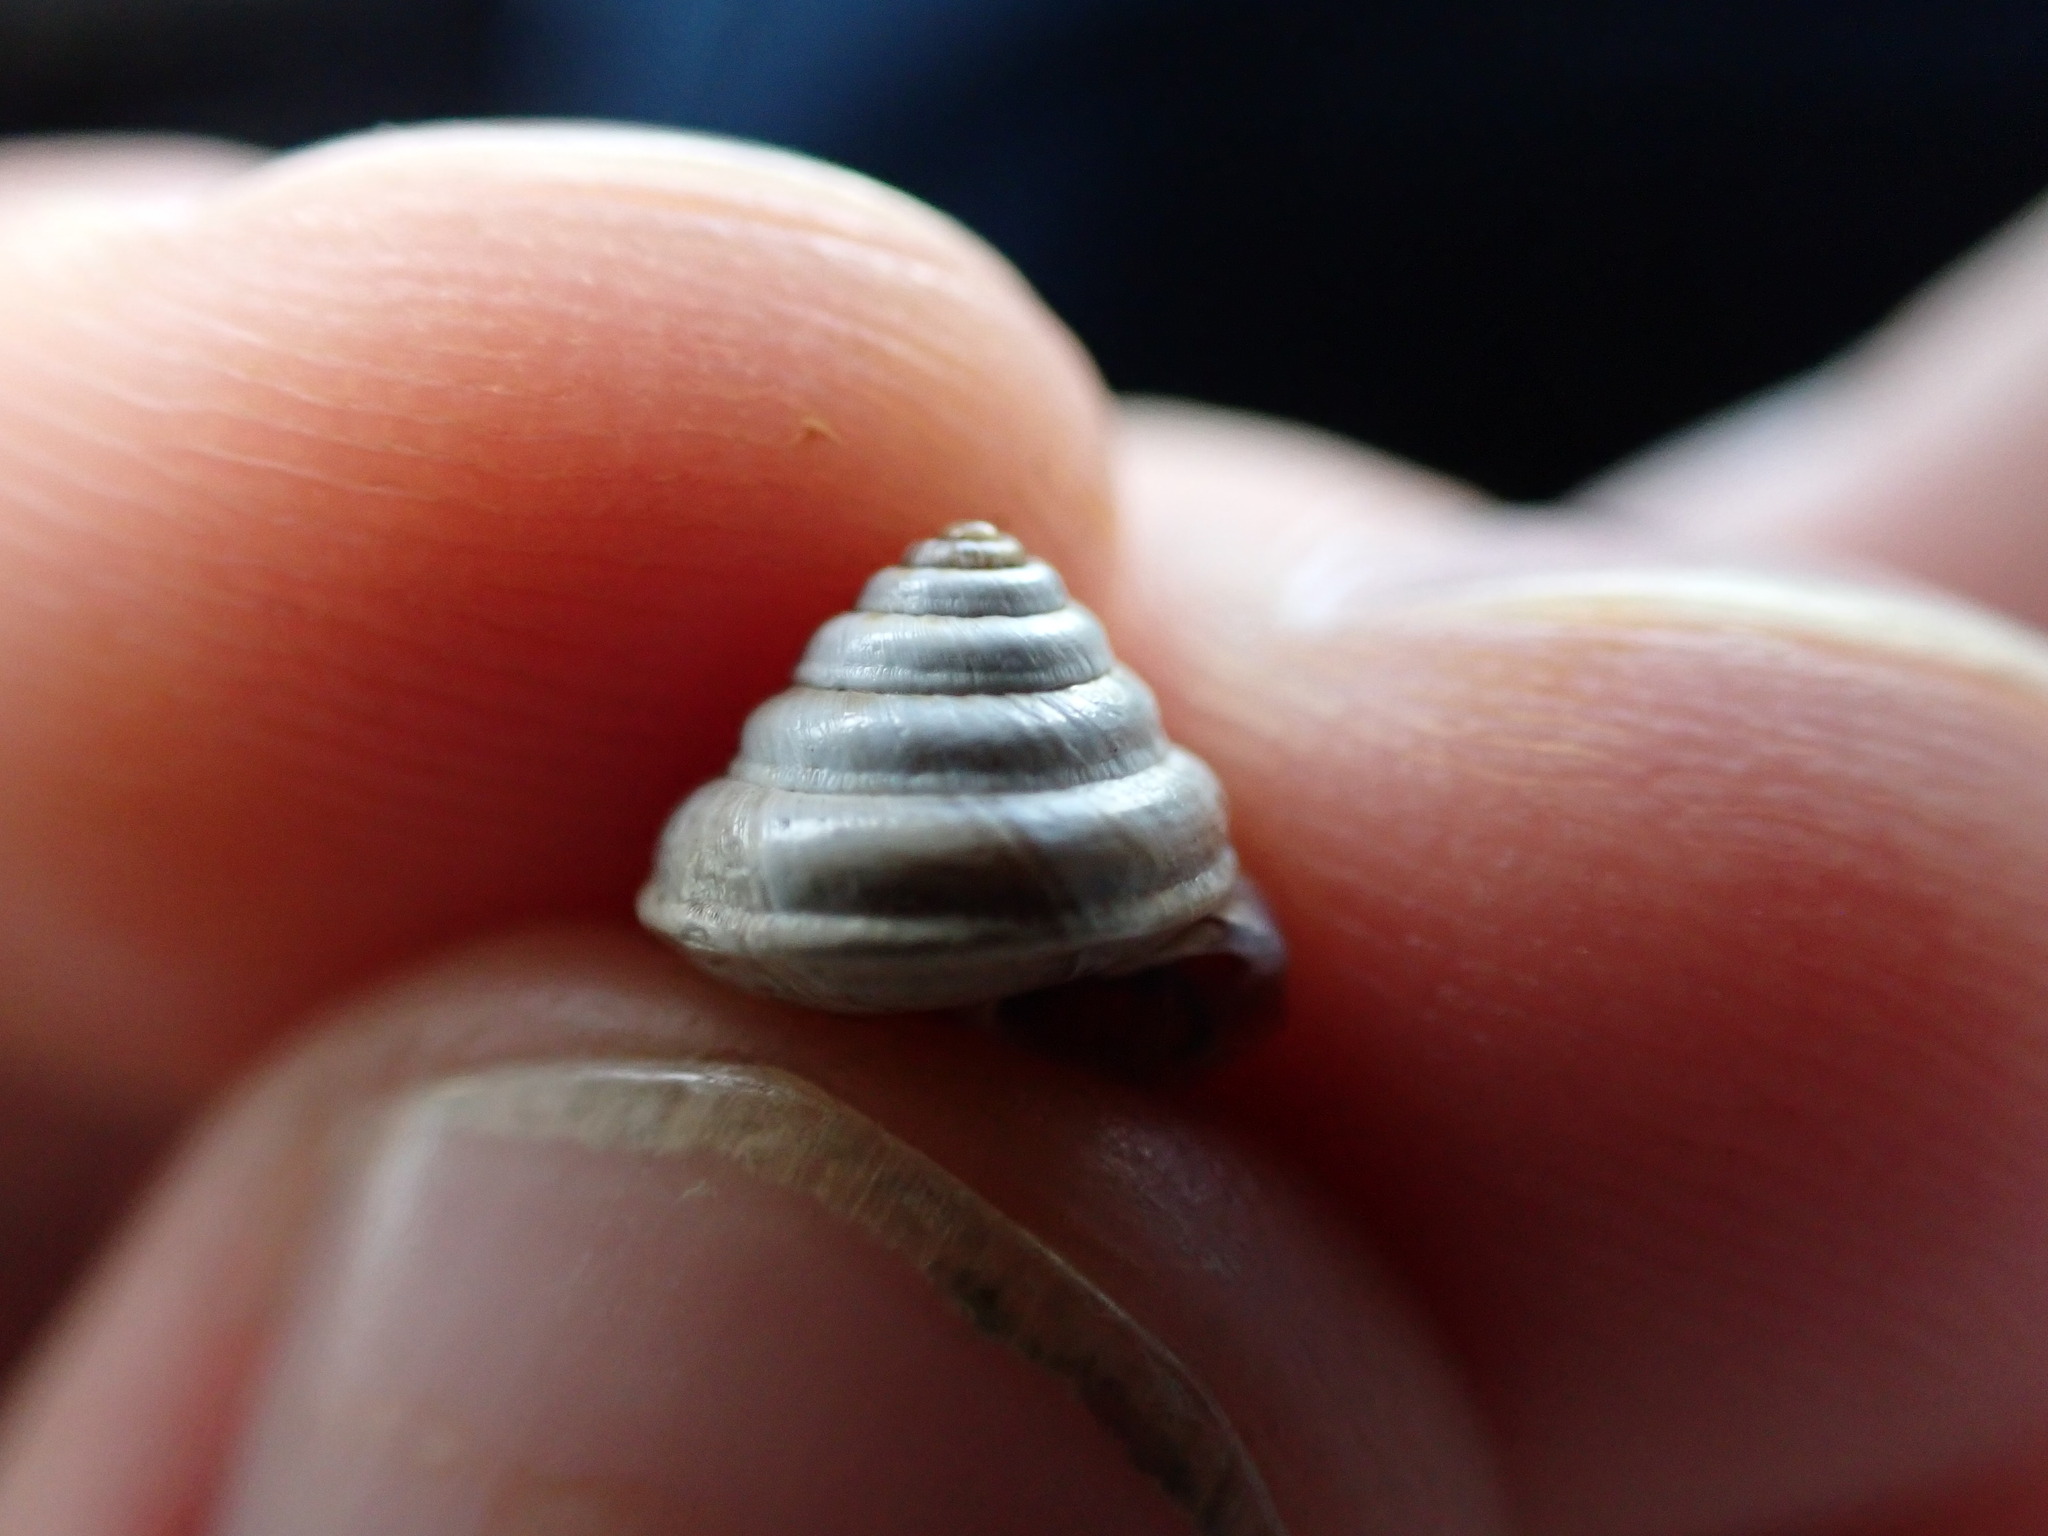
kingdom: Animalia
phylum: Mollusca
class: Gastropoda
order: Stylommatophora
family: Geomitridae
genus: Trochoidea
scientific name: Trochoidea trochoides
